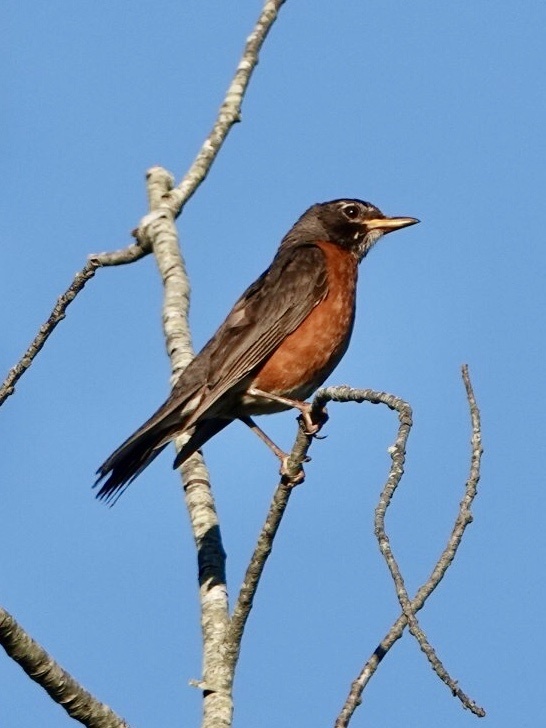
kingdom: Animalia
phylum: Chordata
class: Aves
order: Passeriformes
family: Turdidae
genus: Turdus
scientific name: Turdus migratorius
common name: American robin
